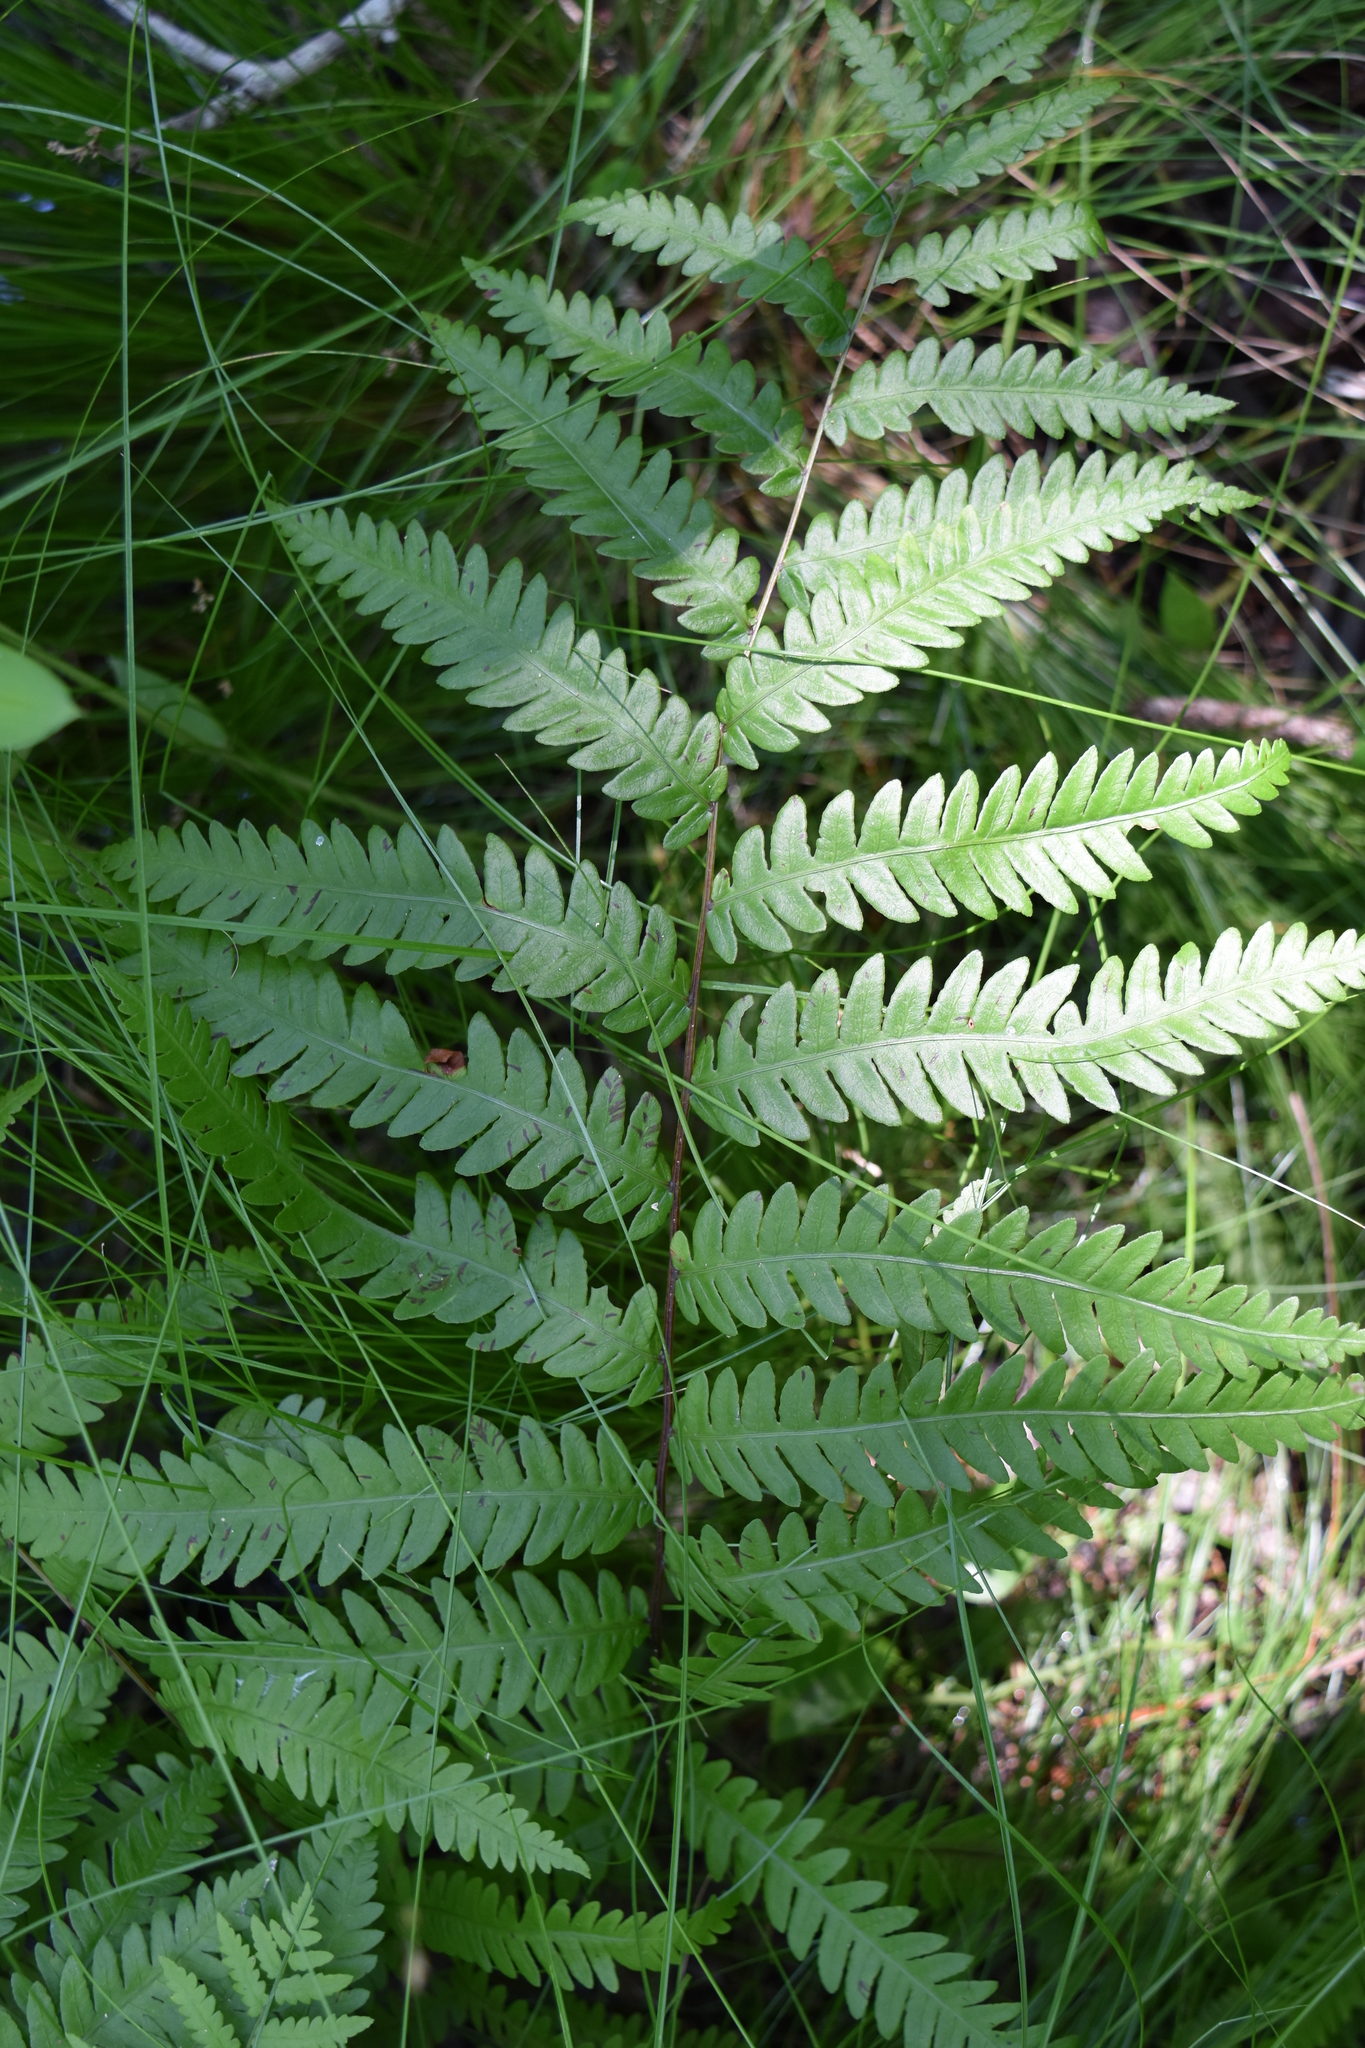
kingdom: Plantae
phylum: Tracheophyta
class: Polypodiopsida
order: Polypodiales
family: Blechnaceae
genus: Anchistea
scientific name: Anchistea virginica
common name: Virginia chain fern
